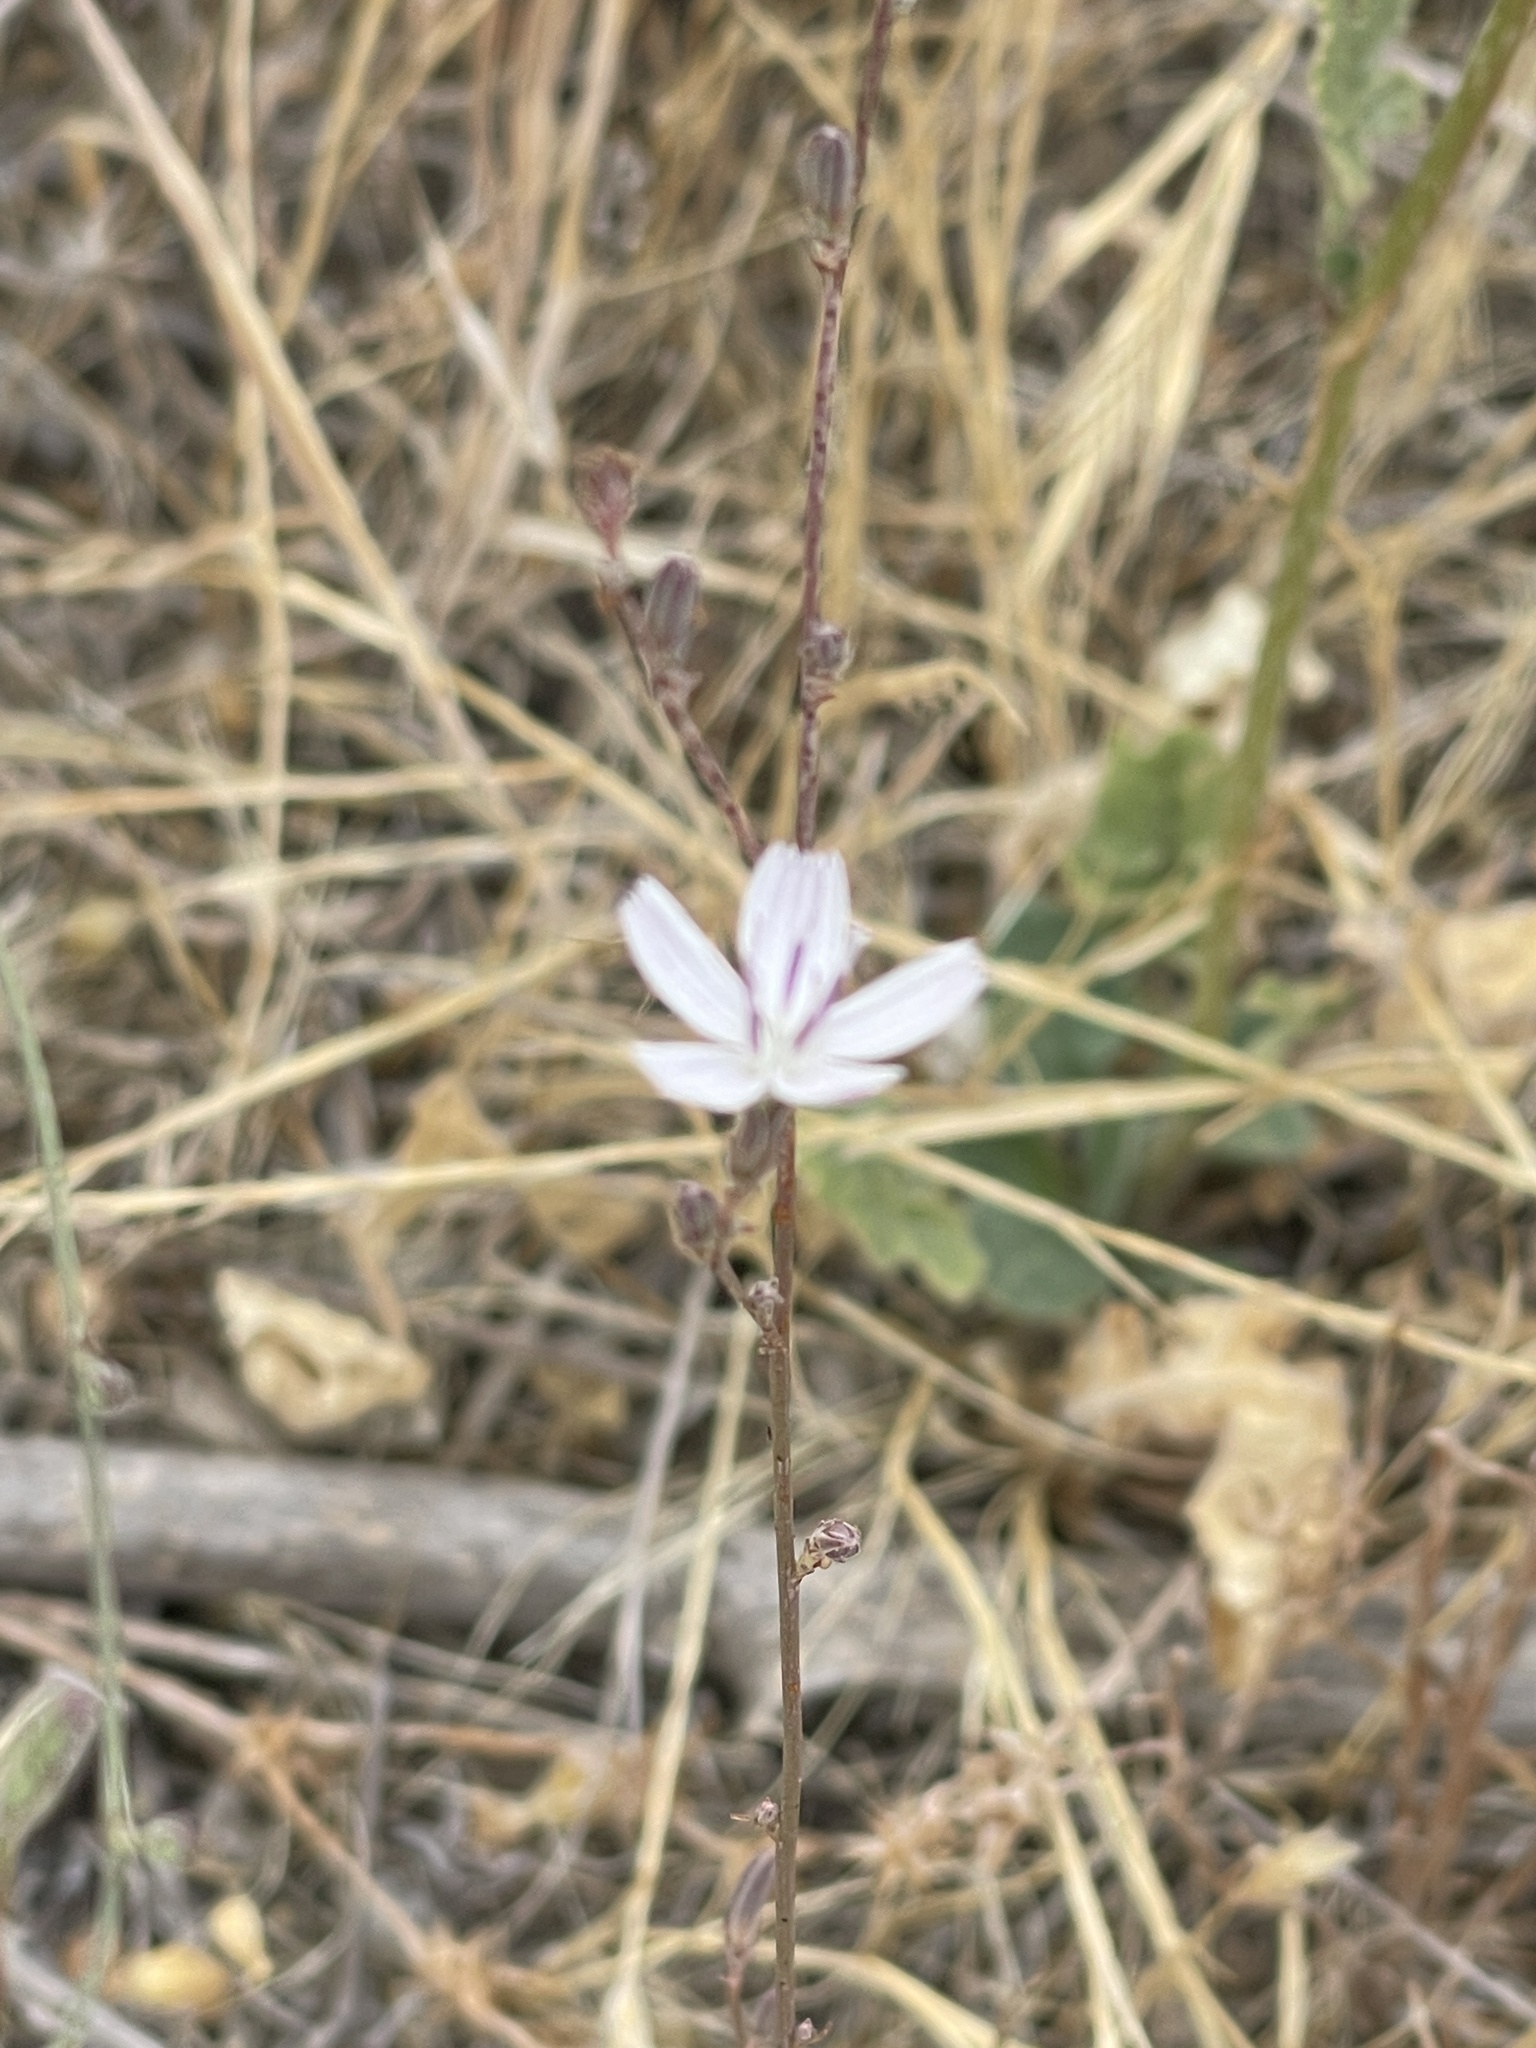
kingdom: Plantae
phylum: Tracheophyta
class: Magnoliopsida
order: Asterales
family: Asteraceae
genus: Stephanomeria
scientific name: Stephanomeria exigua
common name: Small wirelettuce
